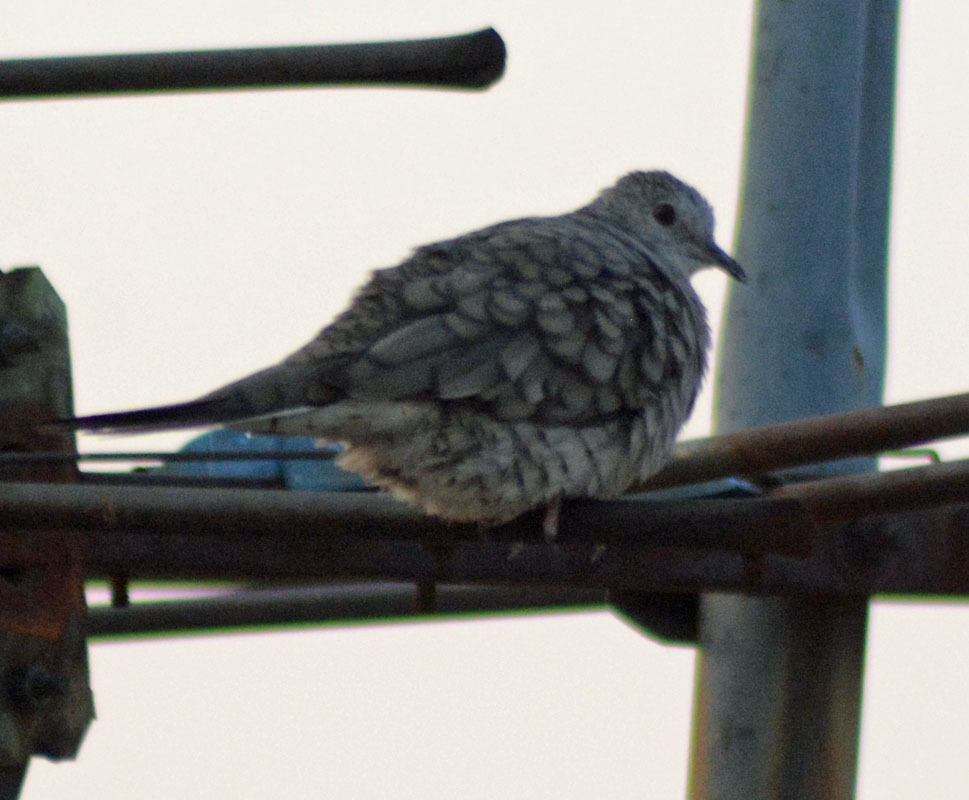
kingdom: Animalia
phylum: Chordata
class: Aves
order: Columbiformes
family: Columbidae
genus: Columbina
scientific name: Columbina inca
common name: Inca dove
